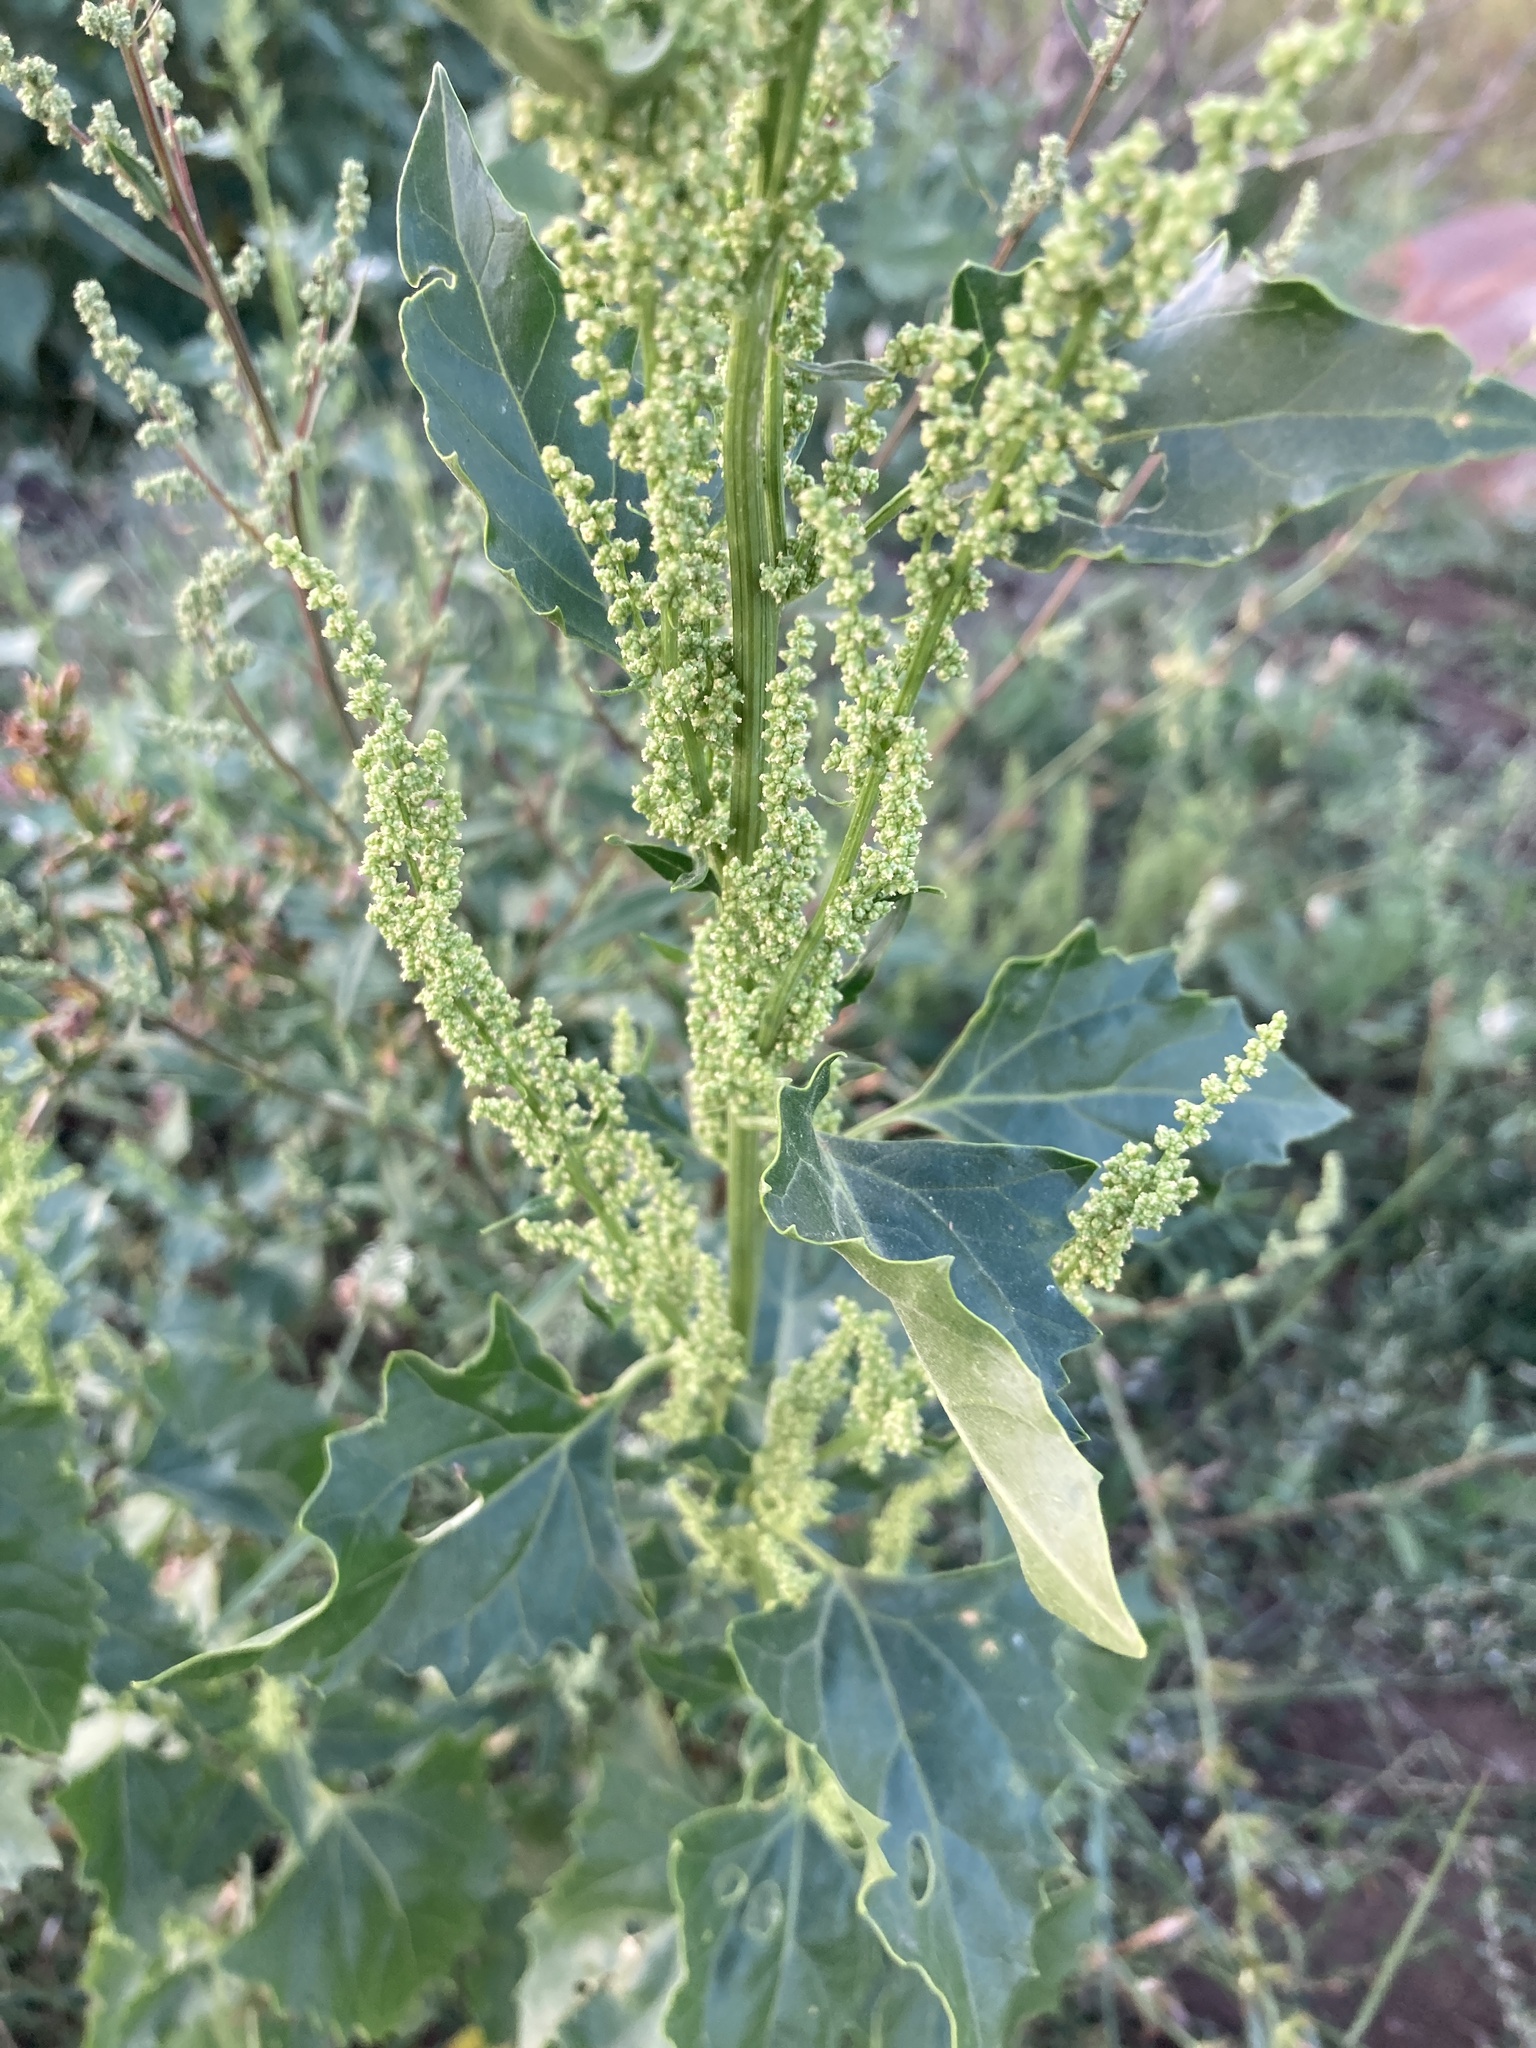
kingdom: Plantae
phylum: Tracheophyta
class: Magnoliopsida
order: Caryophyllales
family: Amaranthaceae
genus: Oxybasis
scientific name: Oxybasis urbica
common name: City goosefoot
